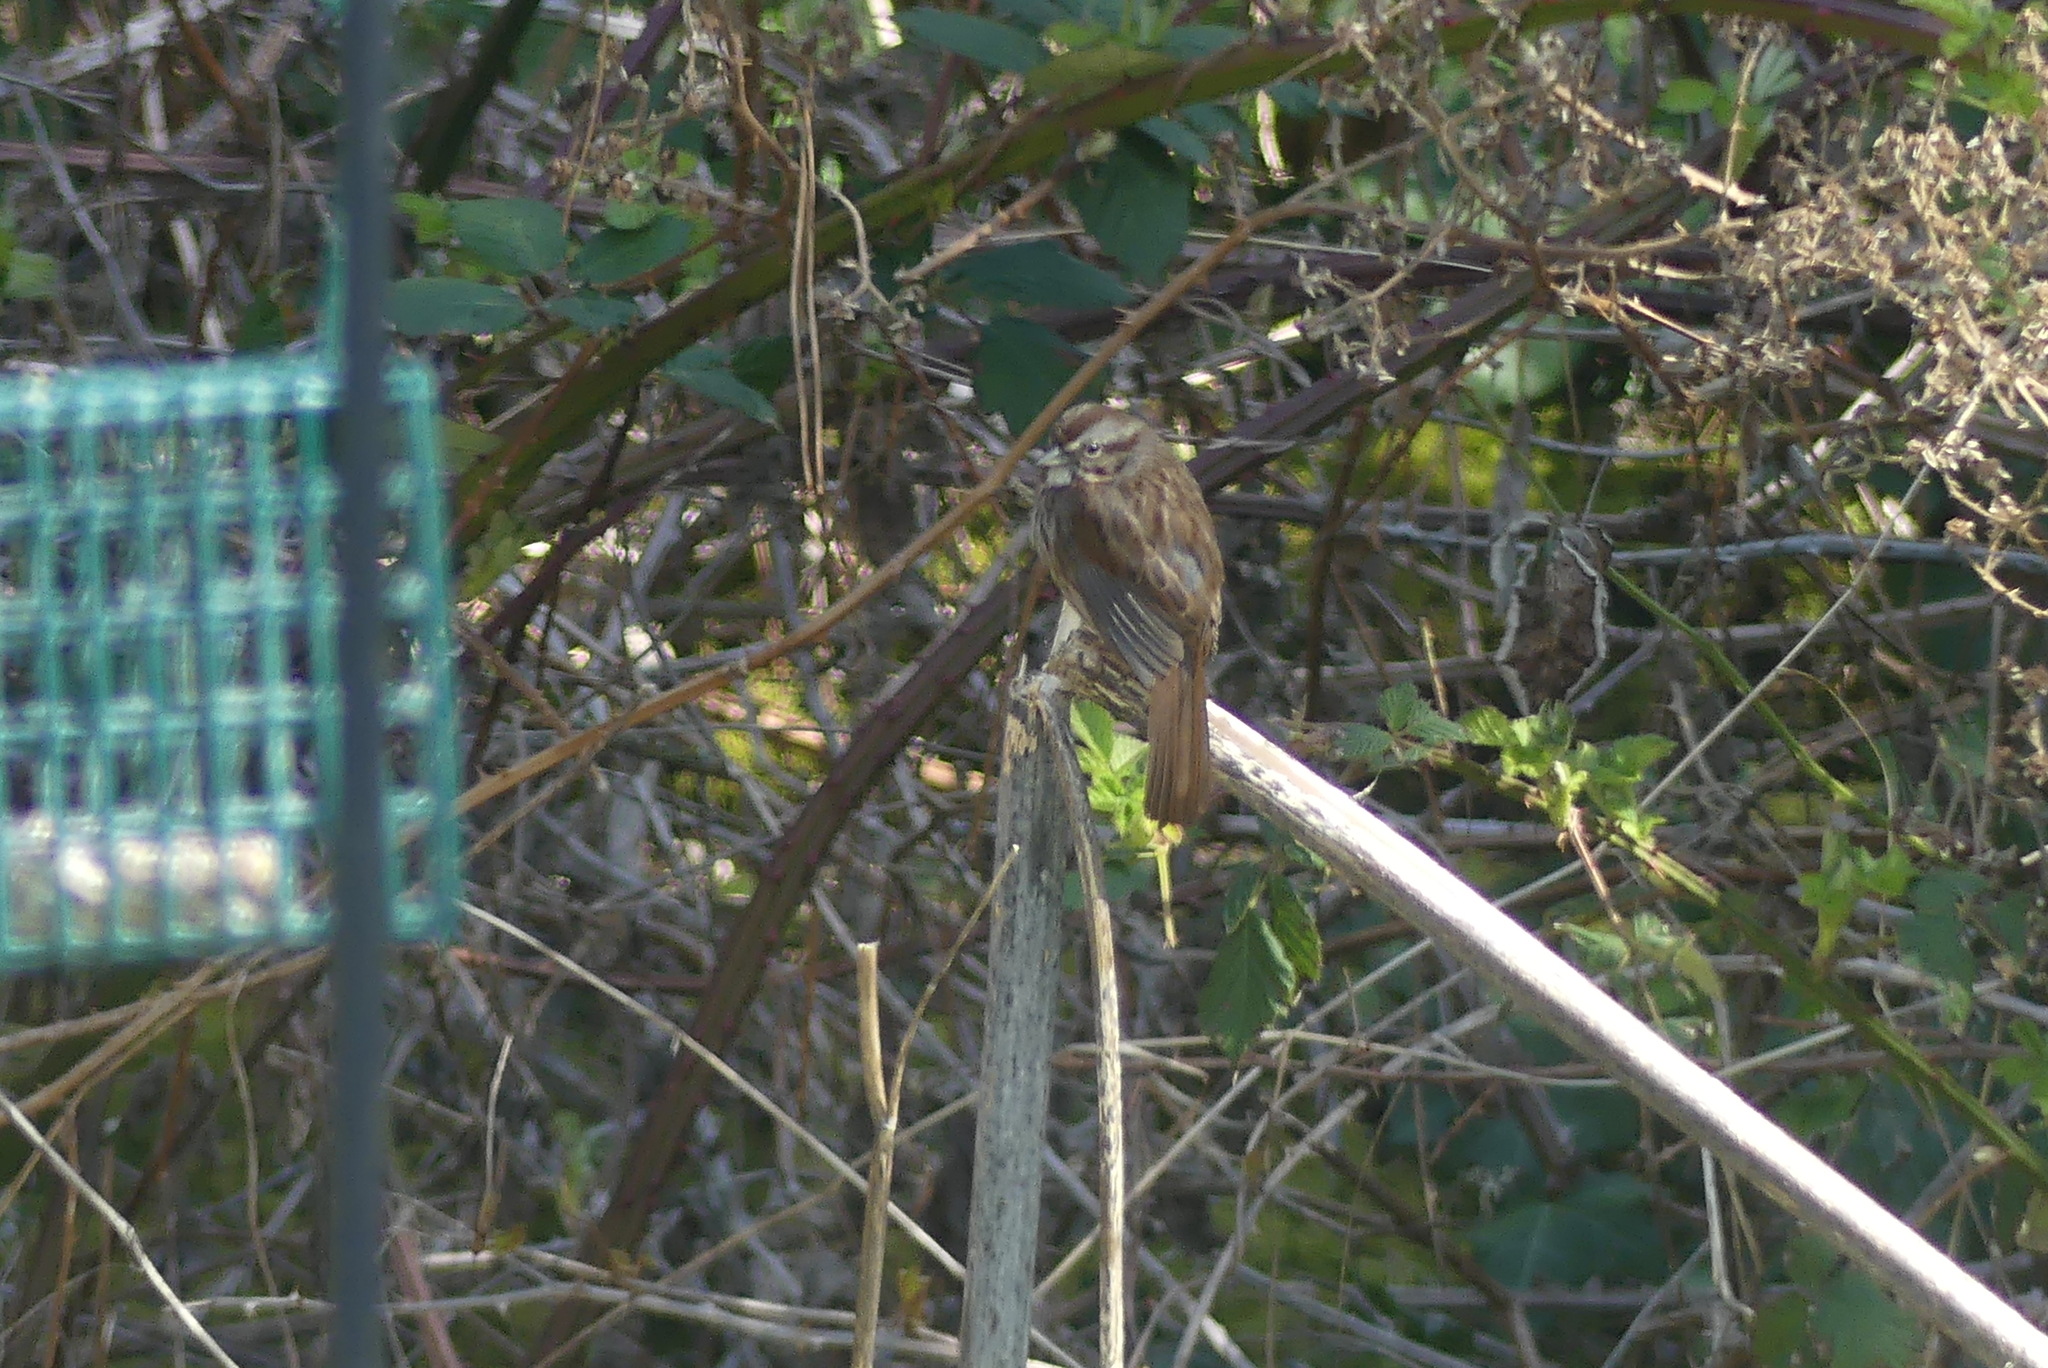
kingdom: Animalia
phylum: Chordata
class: Aves
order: Passeriformes
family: Passerellidae
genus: Melospiza
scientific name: Melospiza melodia
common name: Song sparrow
